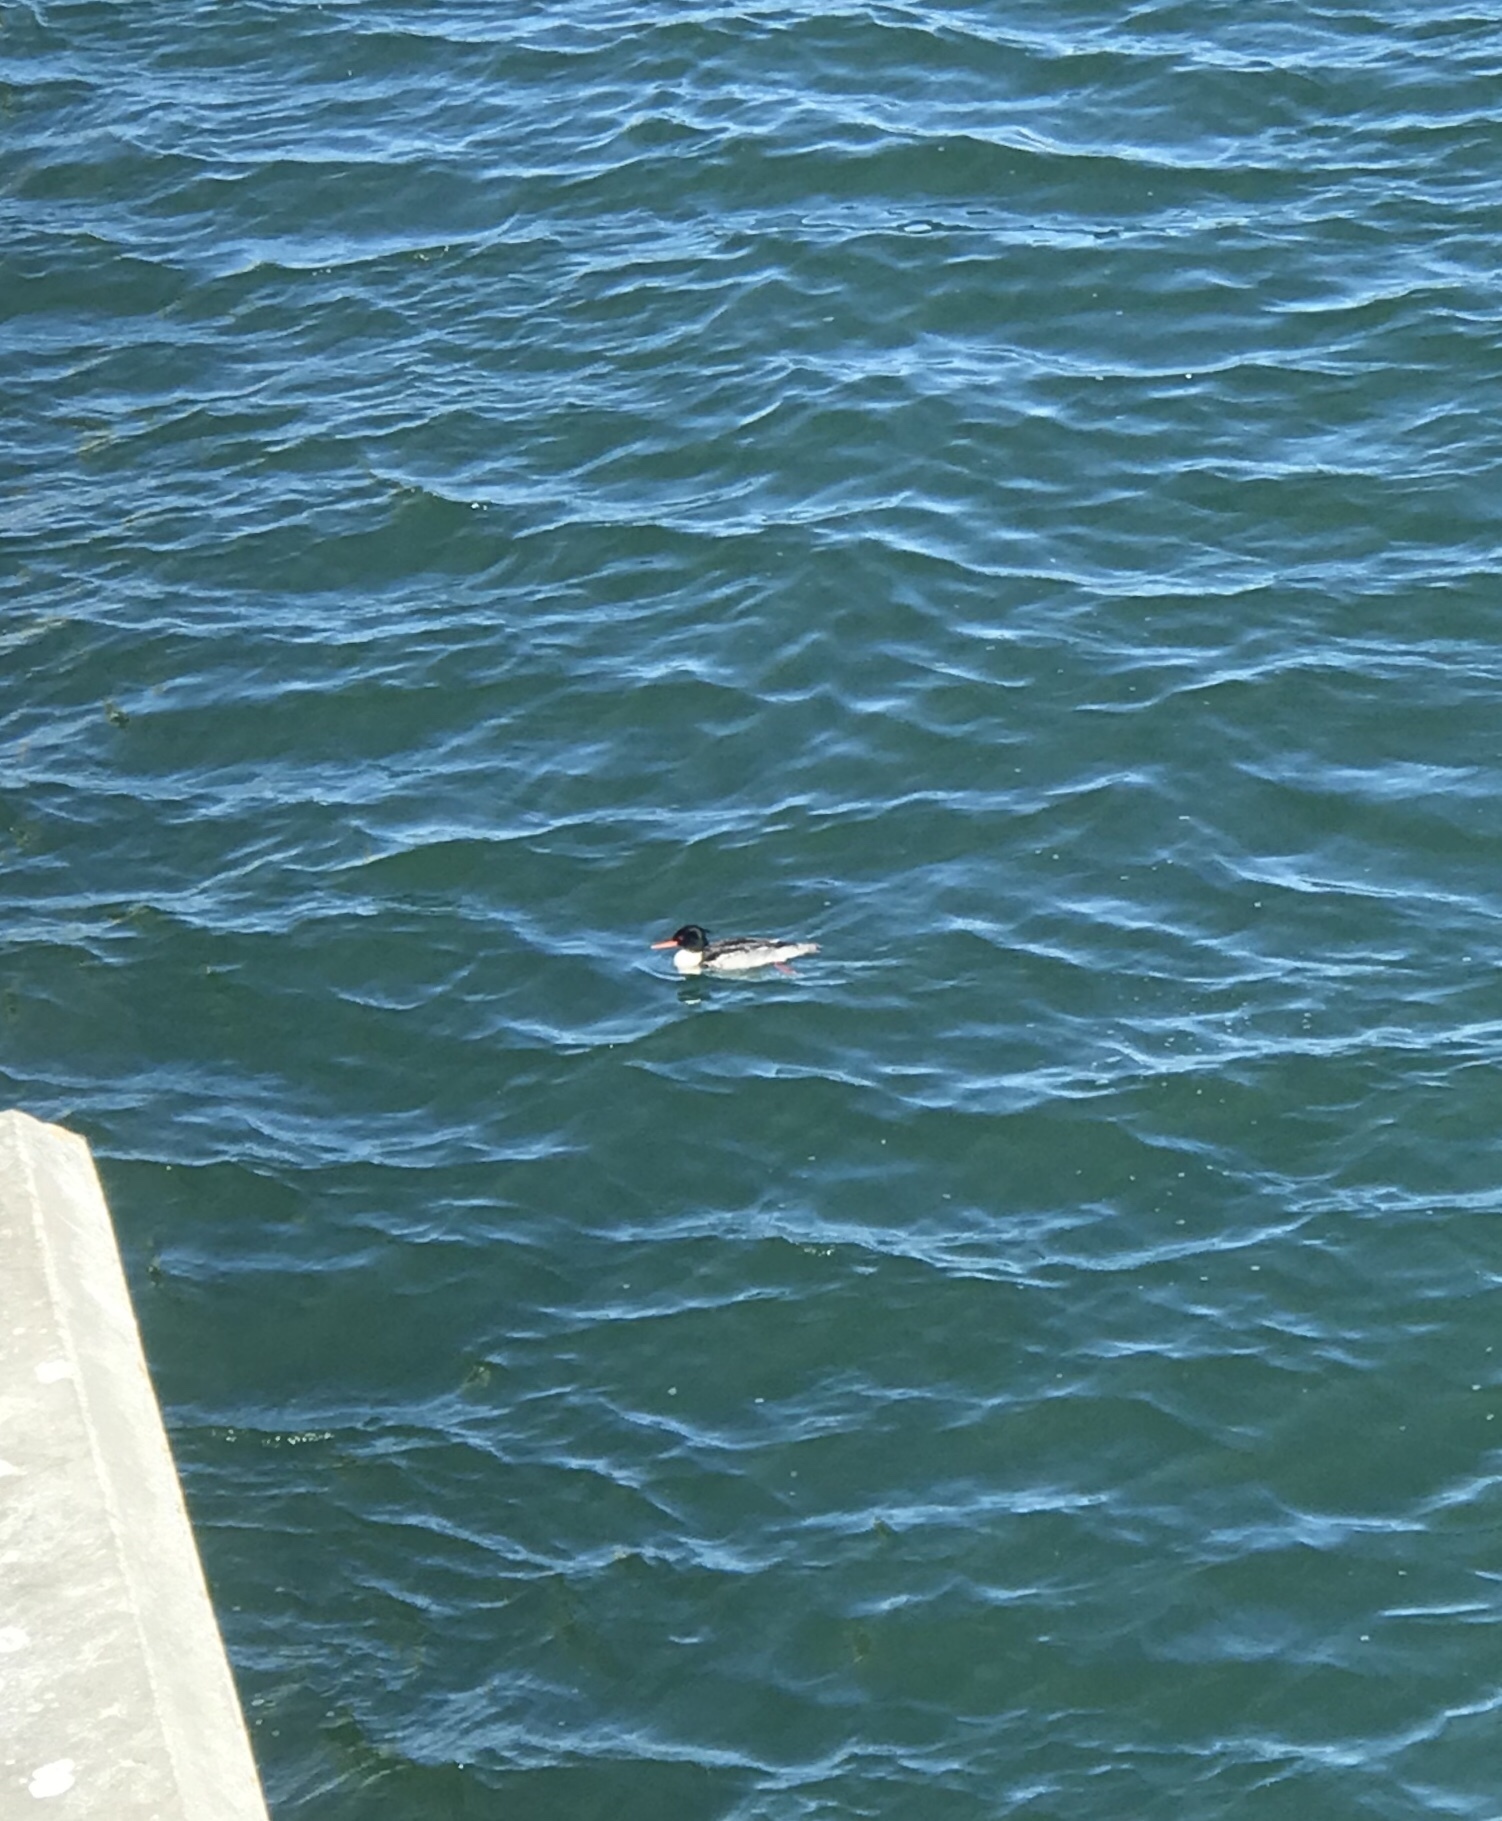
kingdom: Animalia
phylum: Chordata
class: Aves
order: Anseriformes
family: Anatidae
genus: Mergus
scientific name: Mergus serrator
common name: Red-breasted merganser
